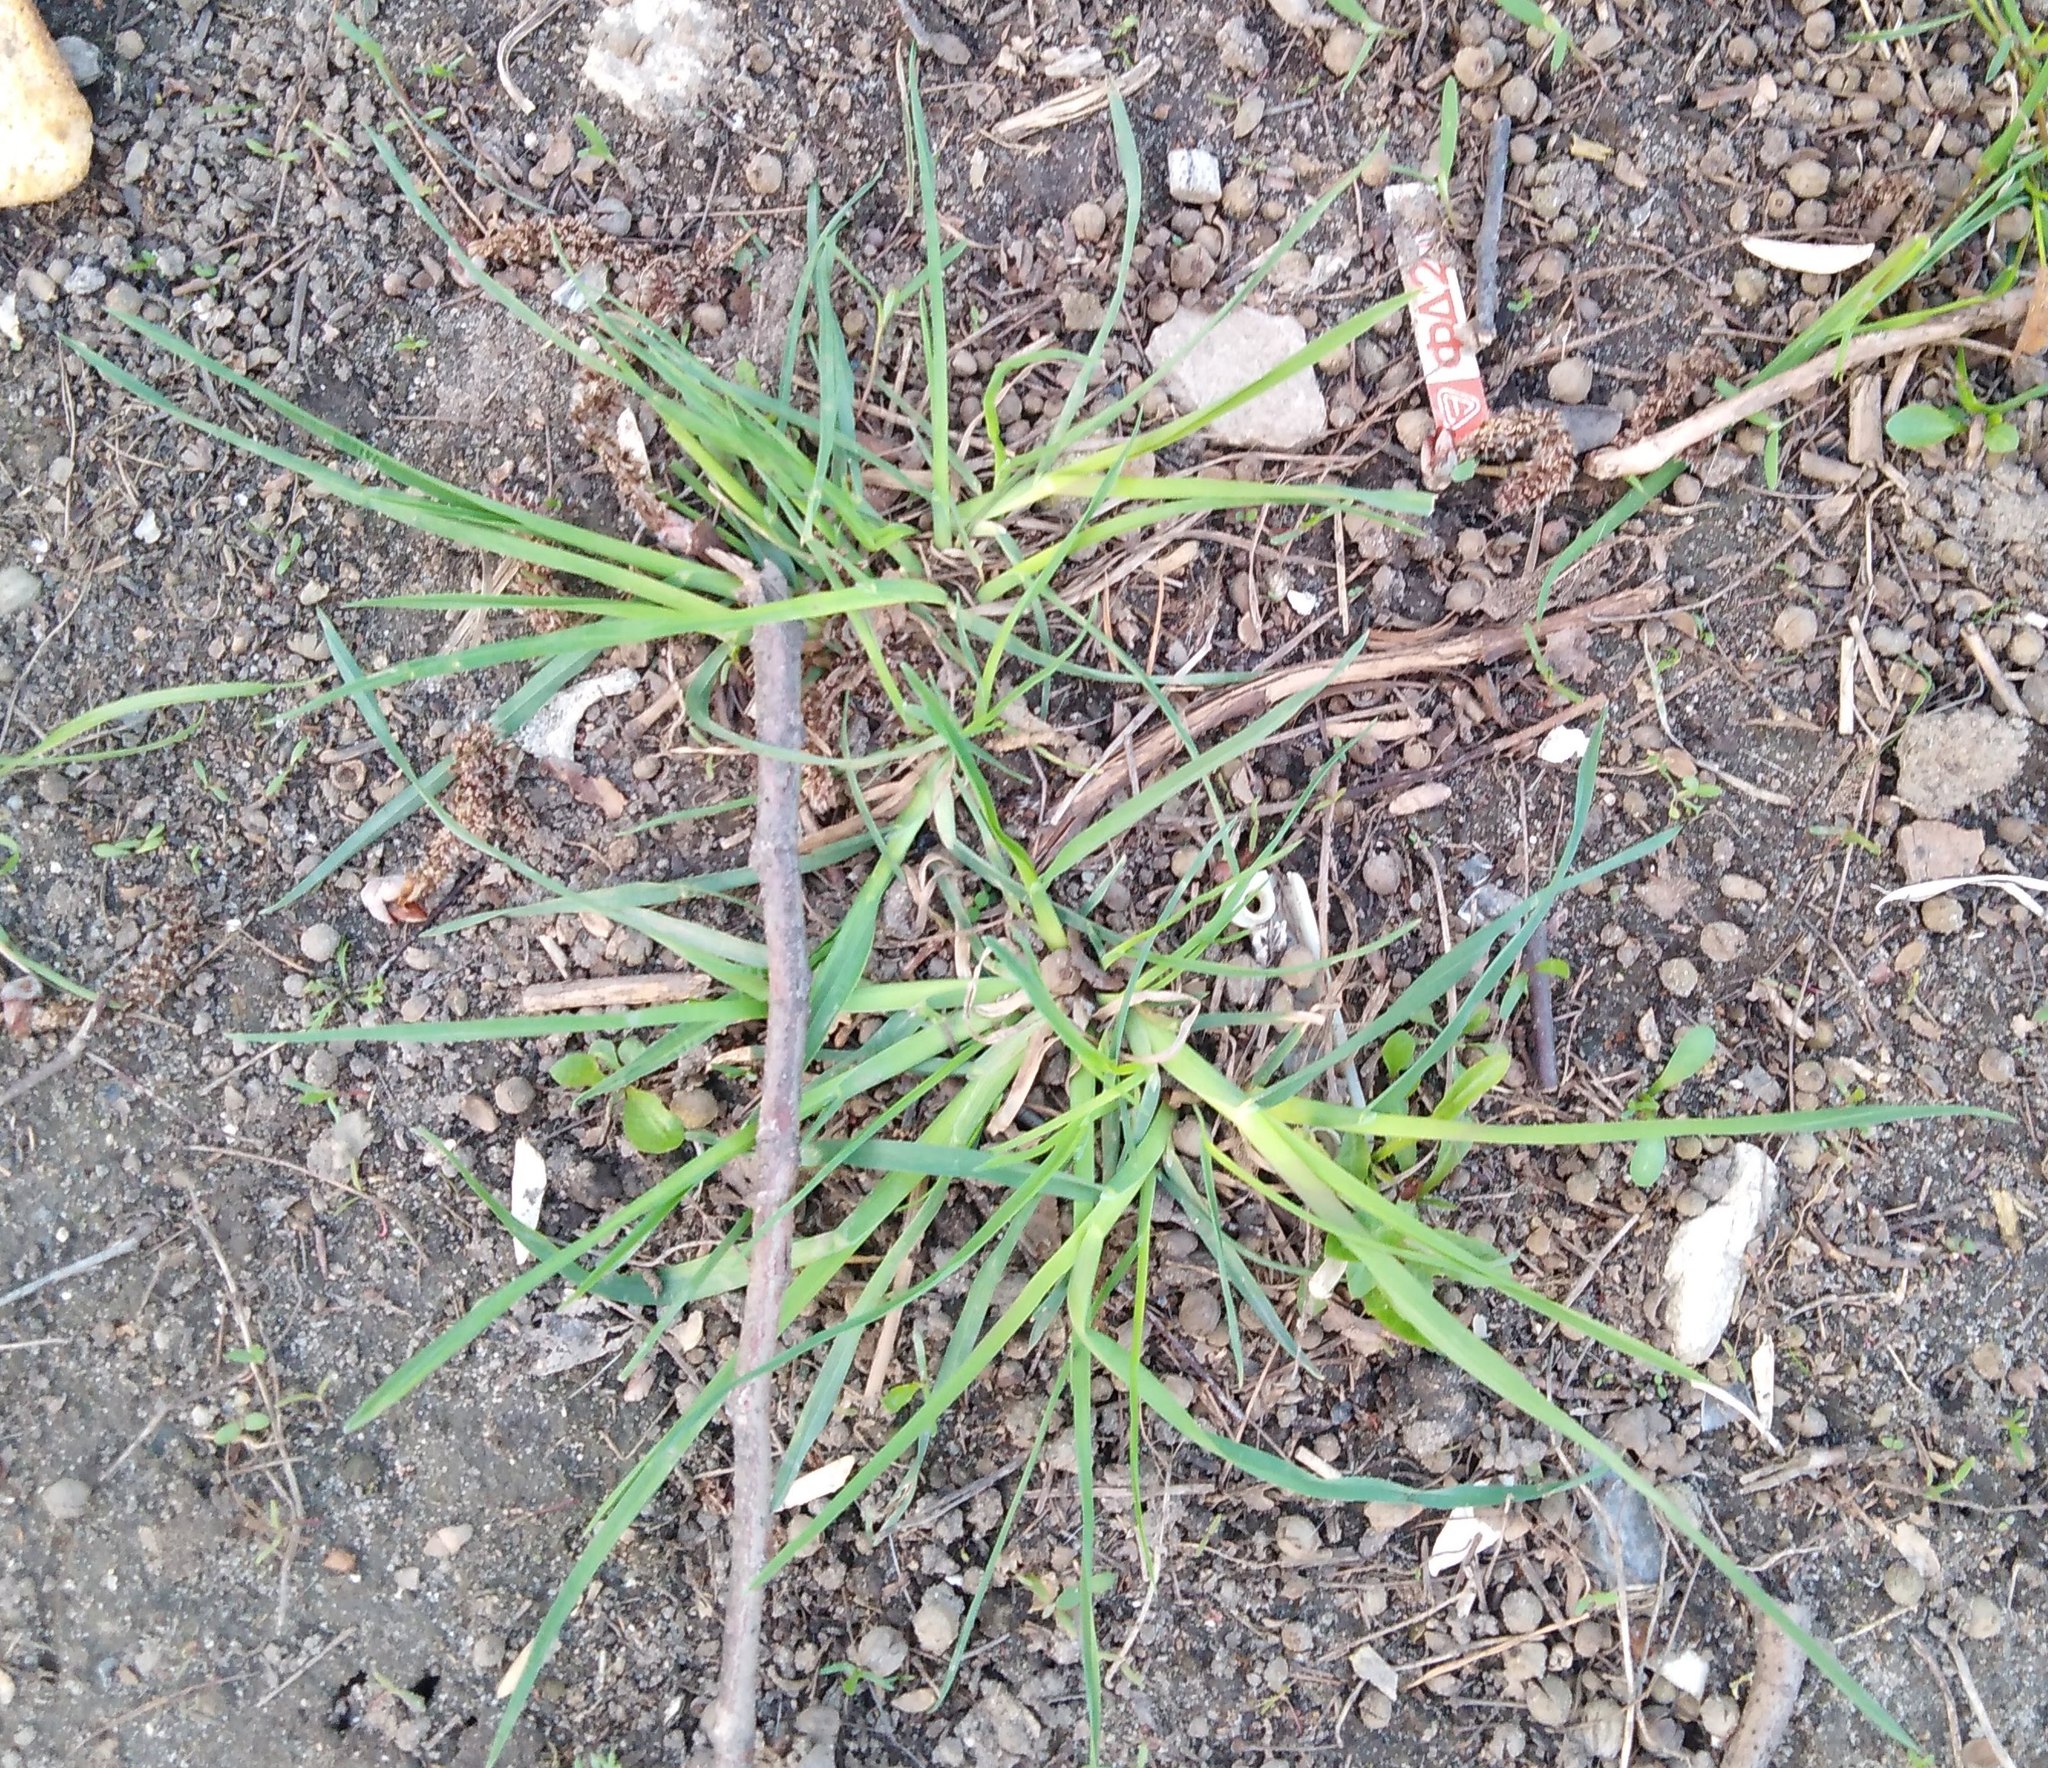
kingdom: Plantae
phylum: Tracheophyta
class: Liliopsida
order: Poales
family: Poaceae
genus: Dactylis
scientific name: Dactylis glomerata
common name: Orchardgrass
